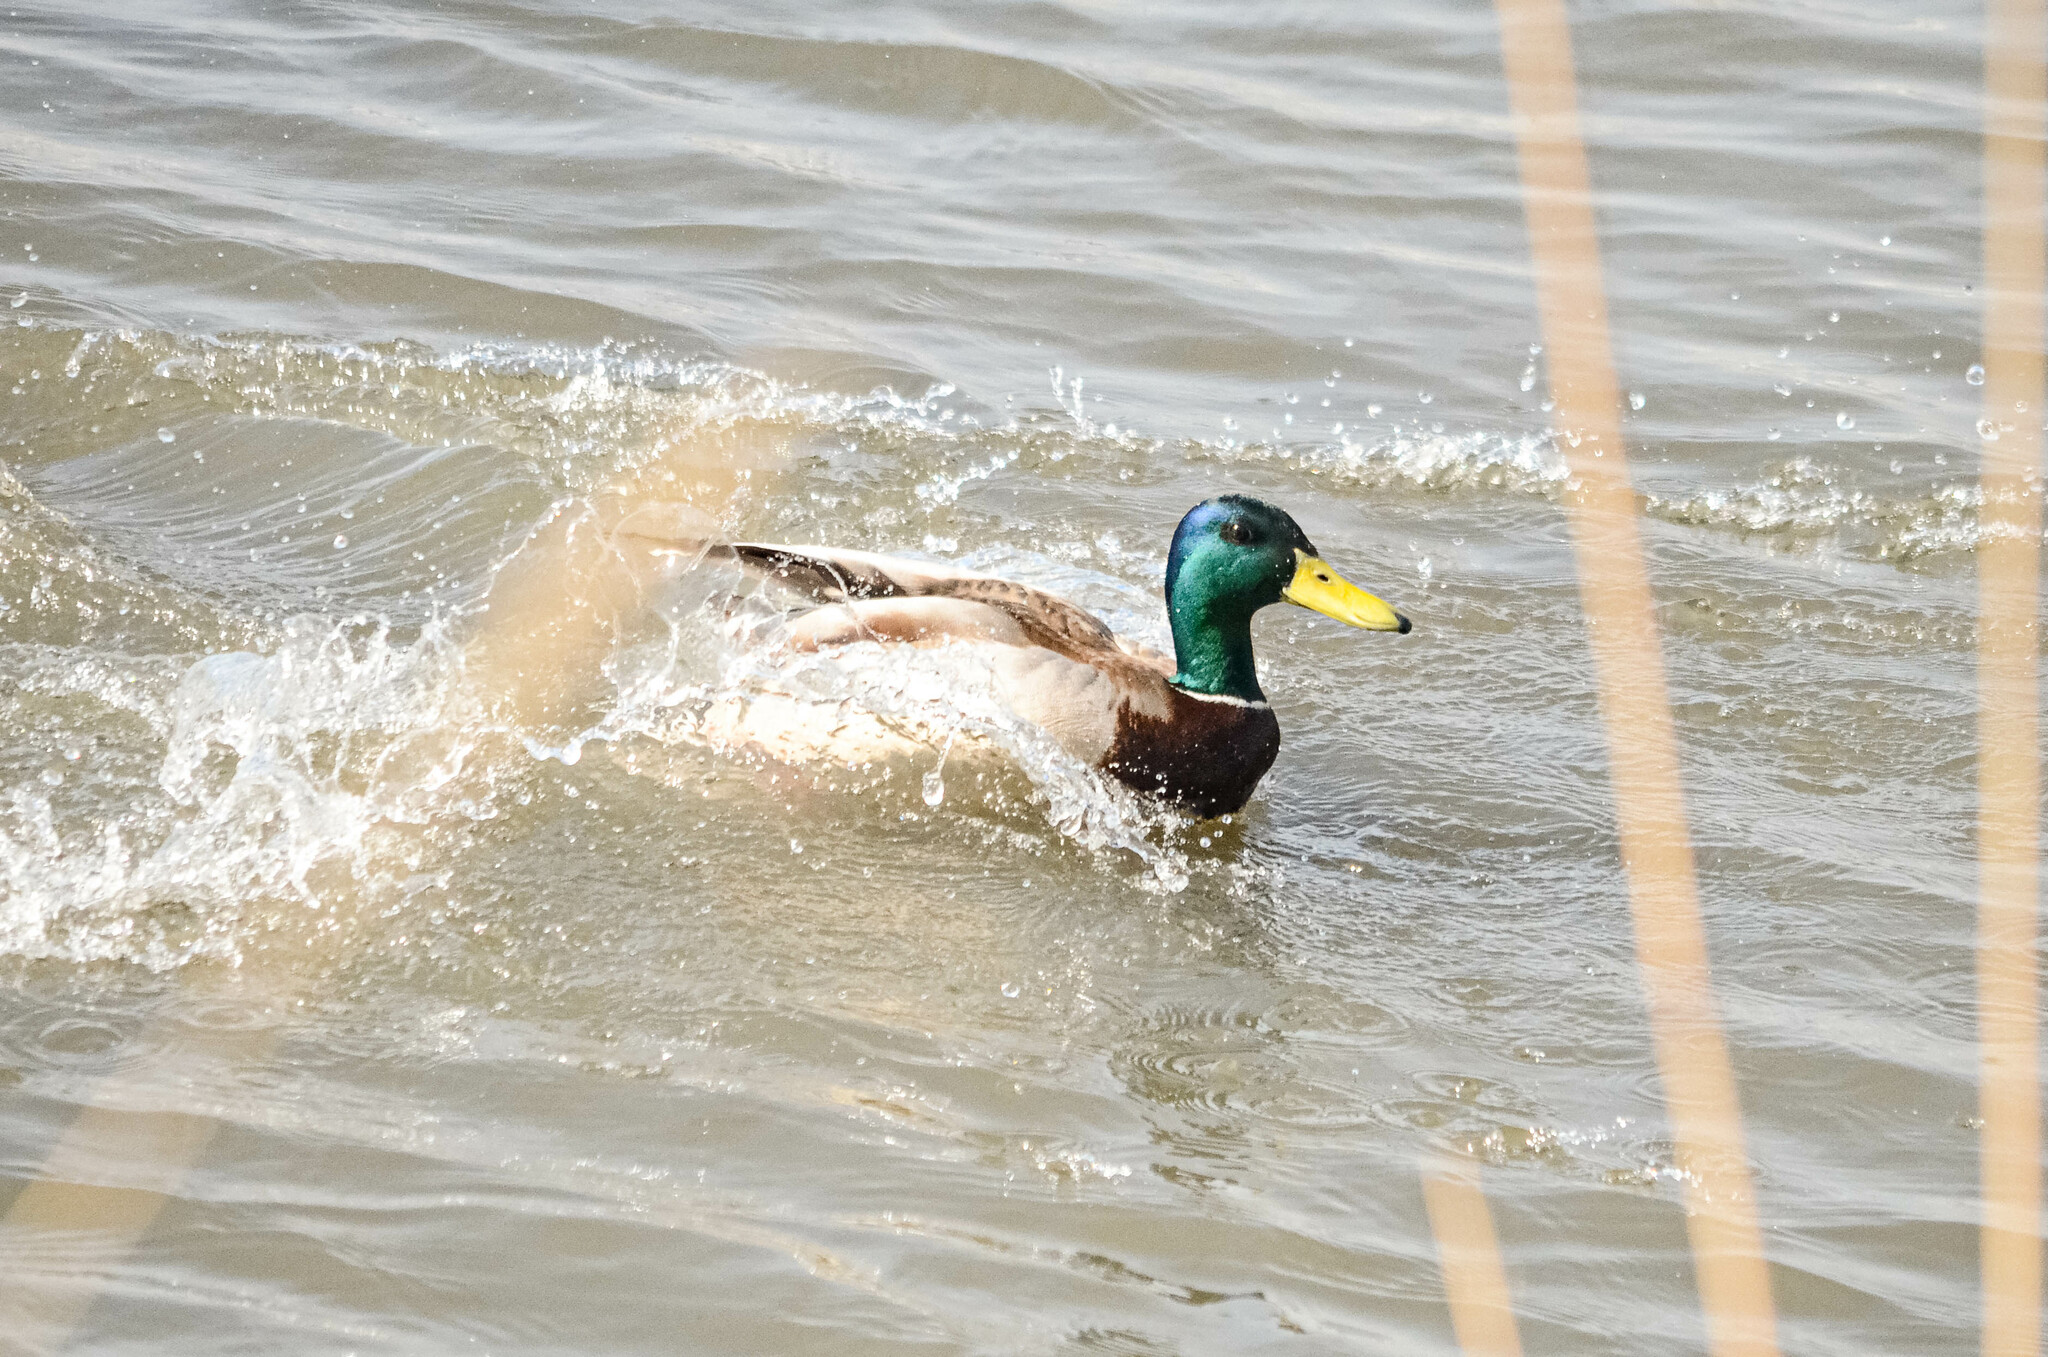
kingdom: Animalia
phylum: Chordata
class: Aves
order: Anseriformes
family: Anatidae
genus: Anas
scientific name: Anas platyrhynchos
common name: Mallard
